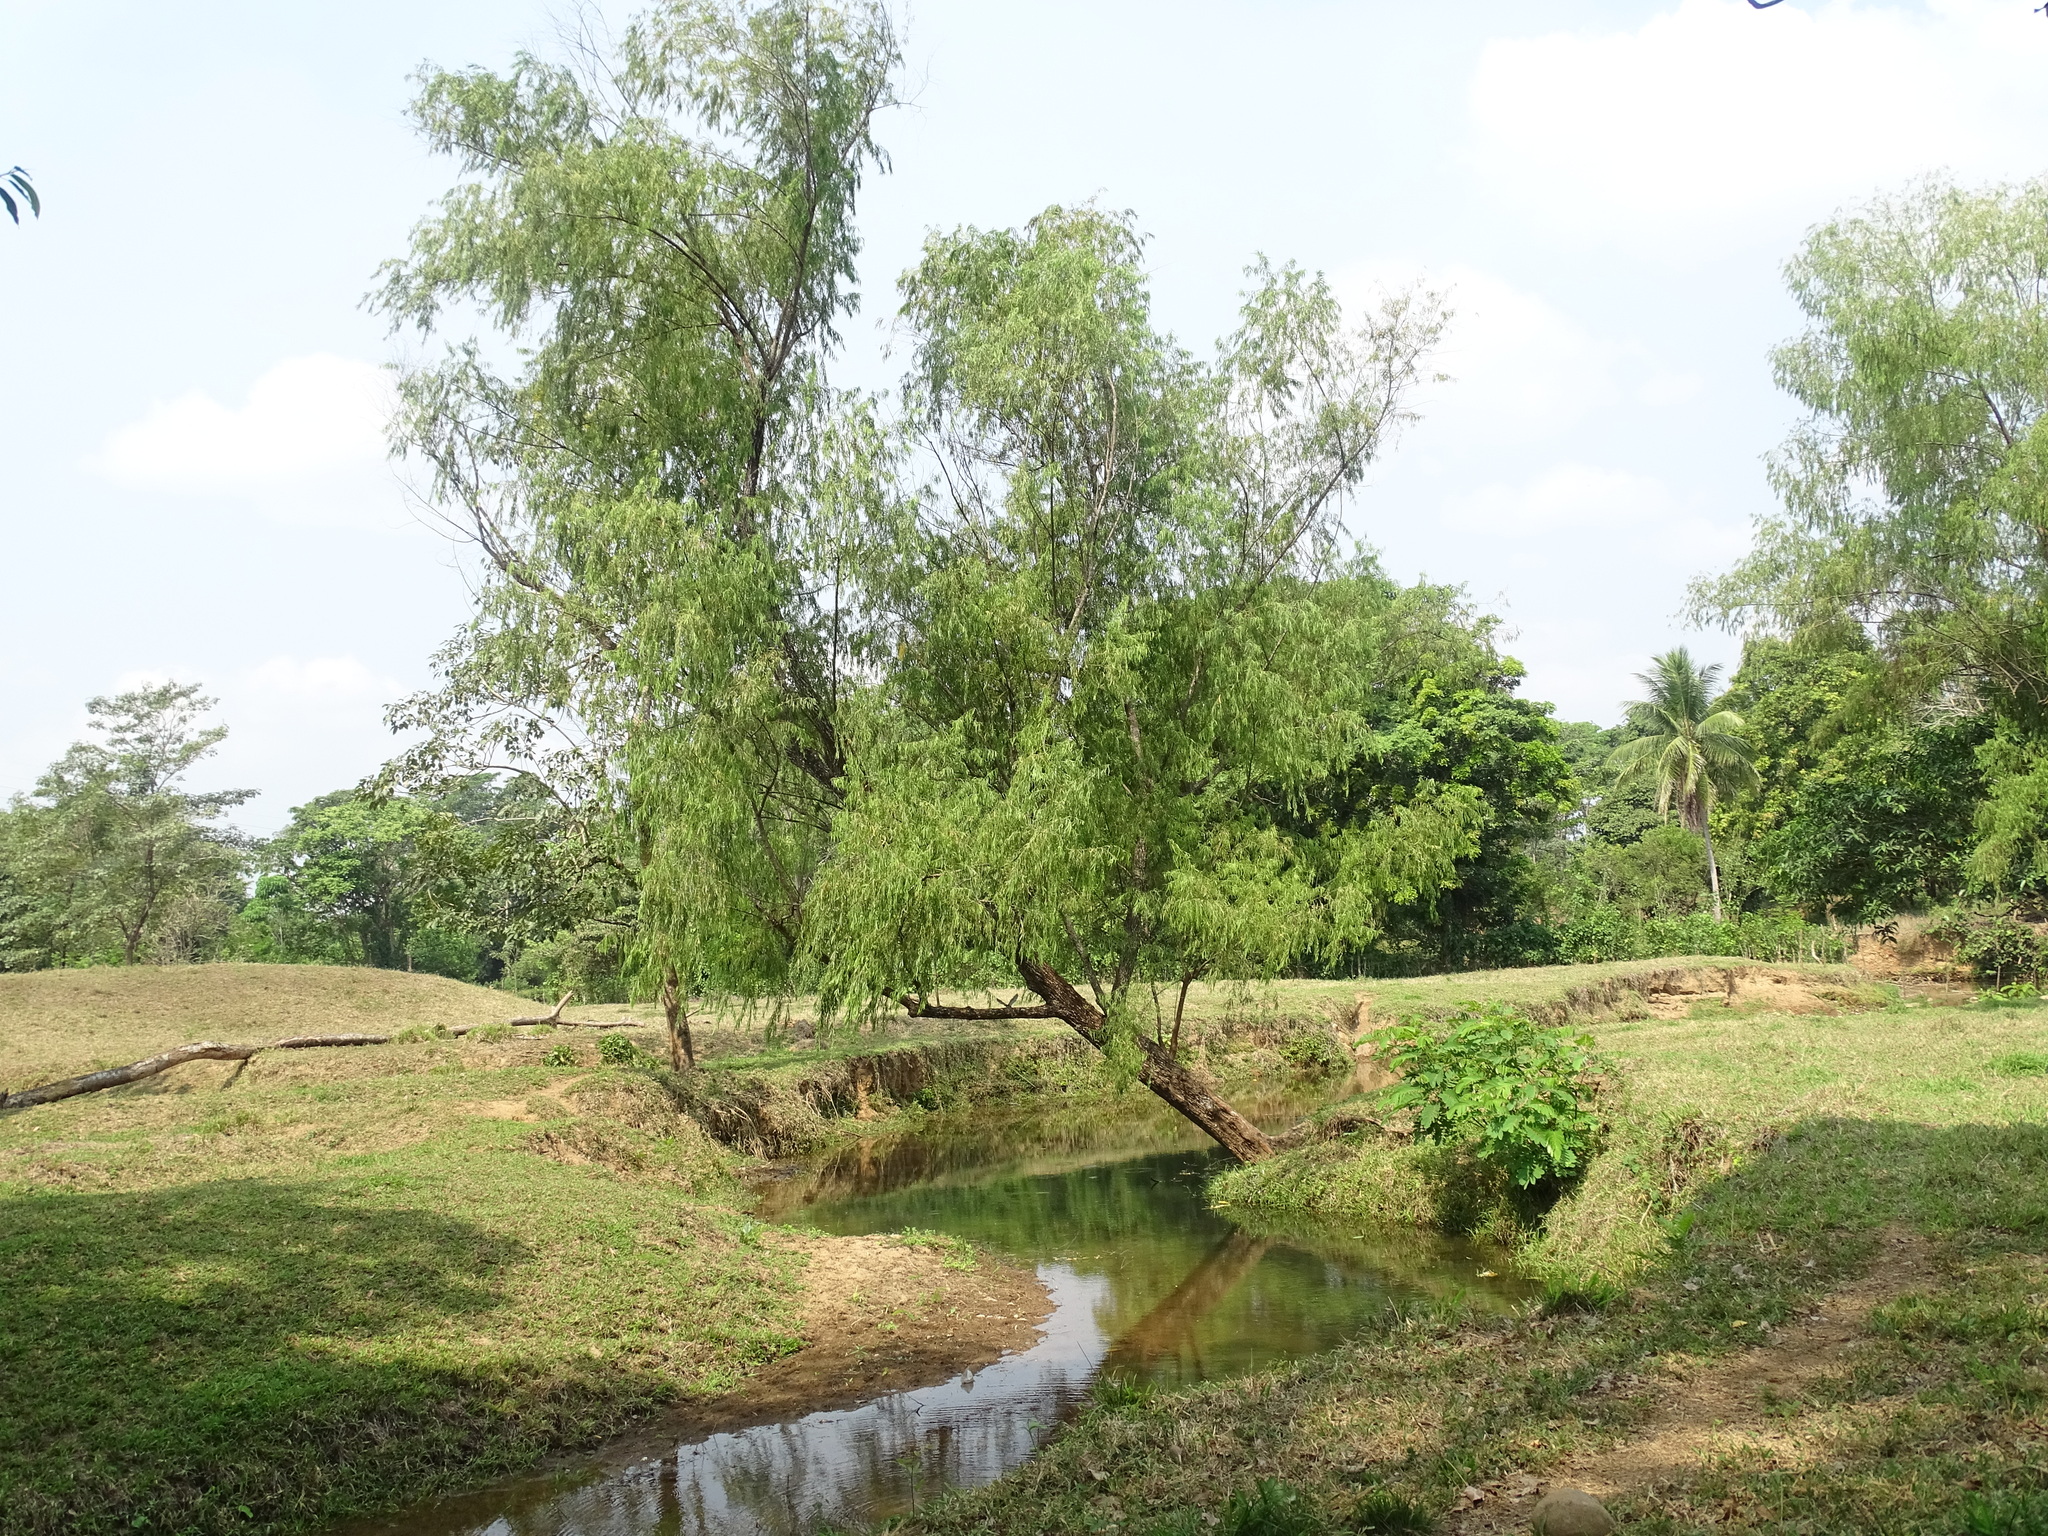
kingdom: Plantae
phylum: Tracheophyta
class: Magnoliopsida
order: Malpighiales
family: Salicaceae
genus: Salix
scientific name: Salix humboldtiana
